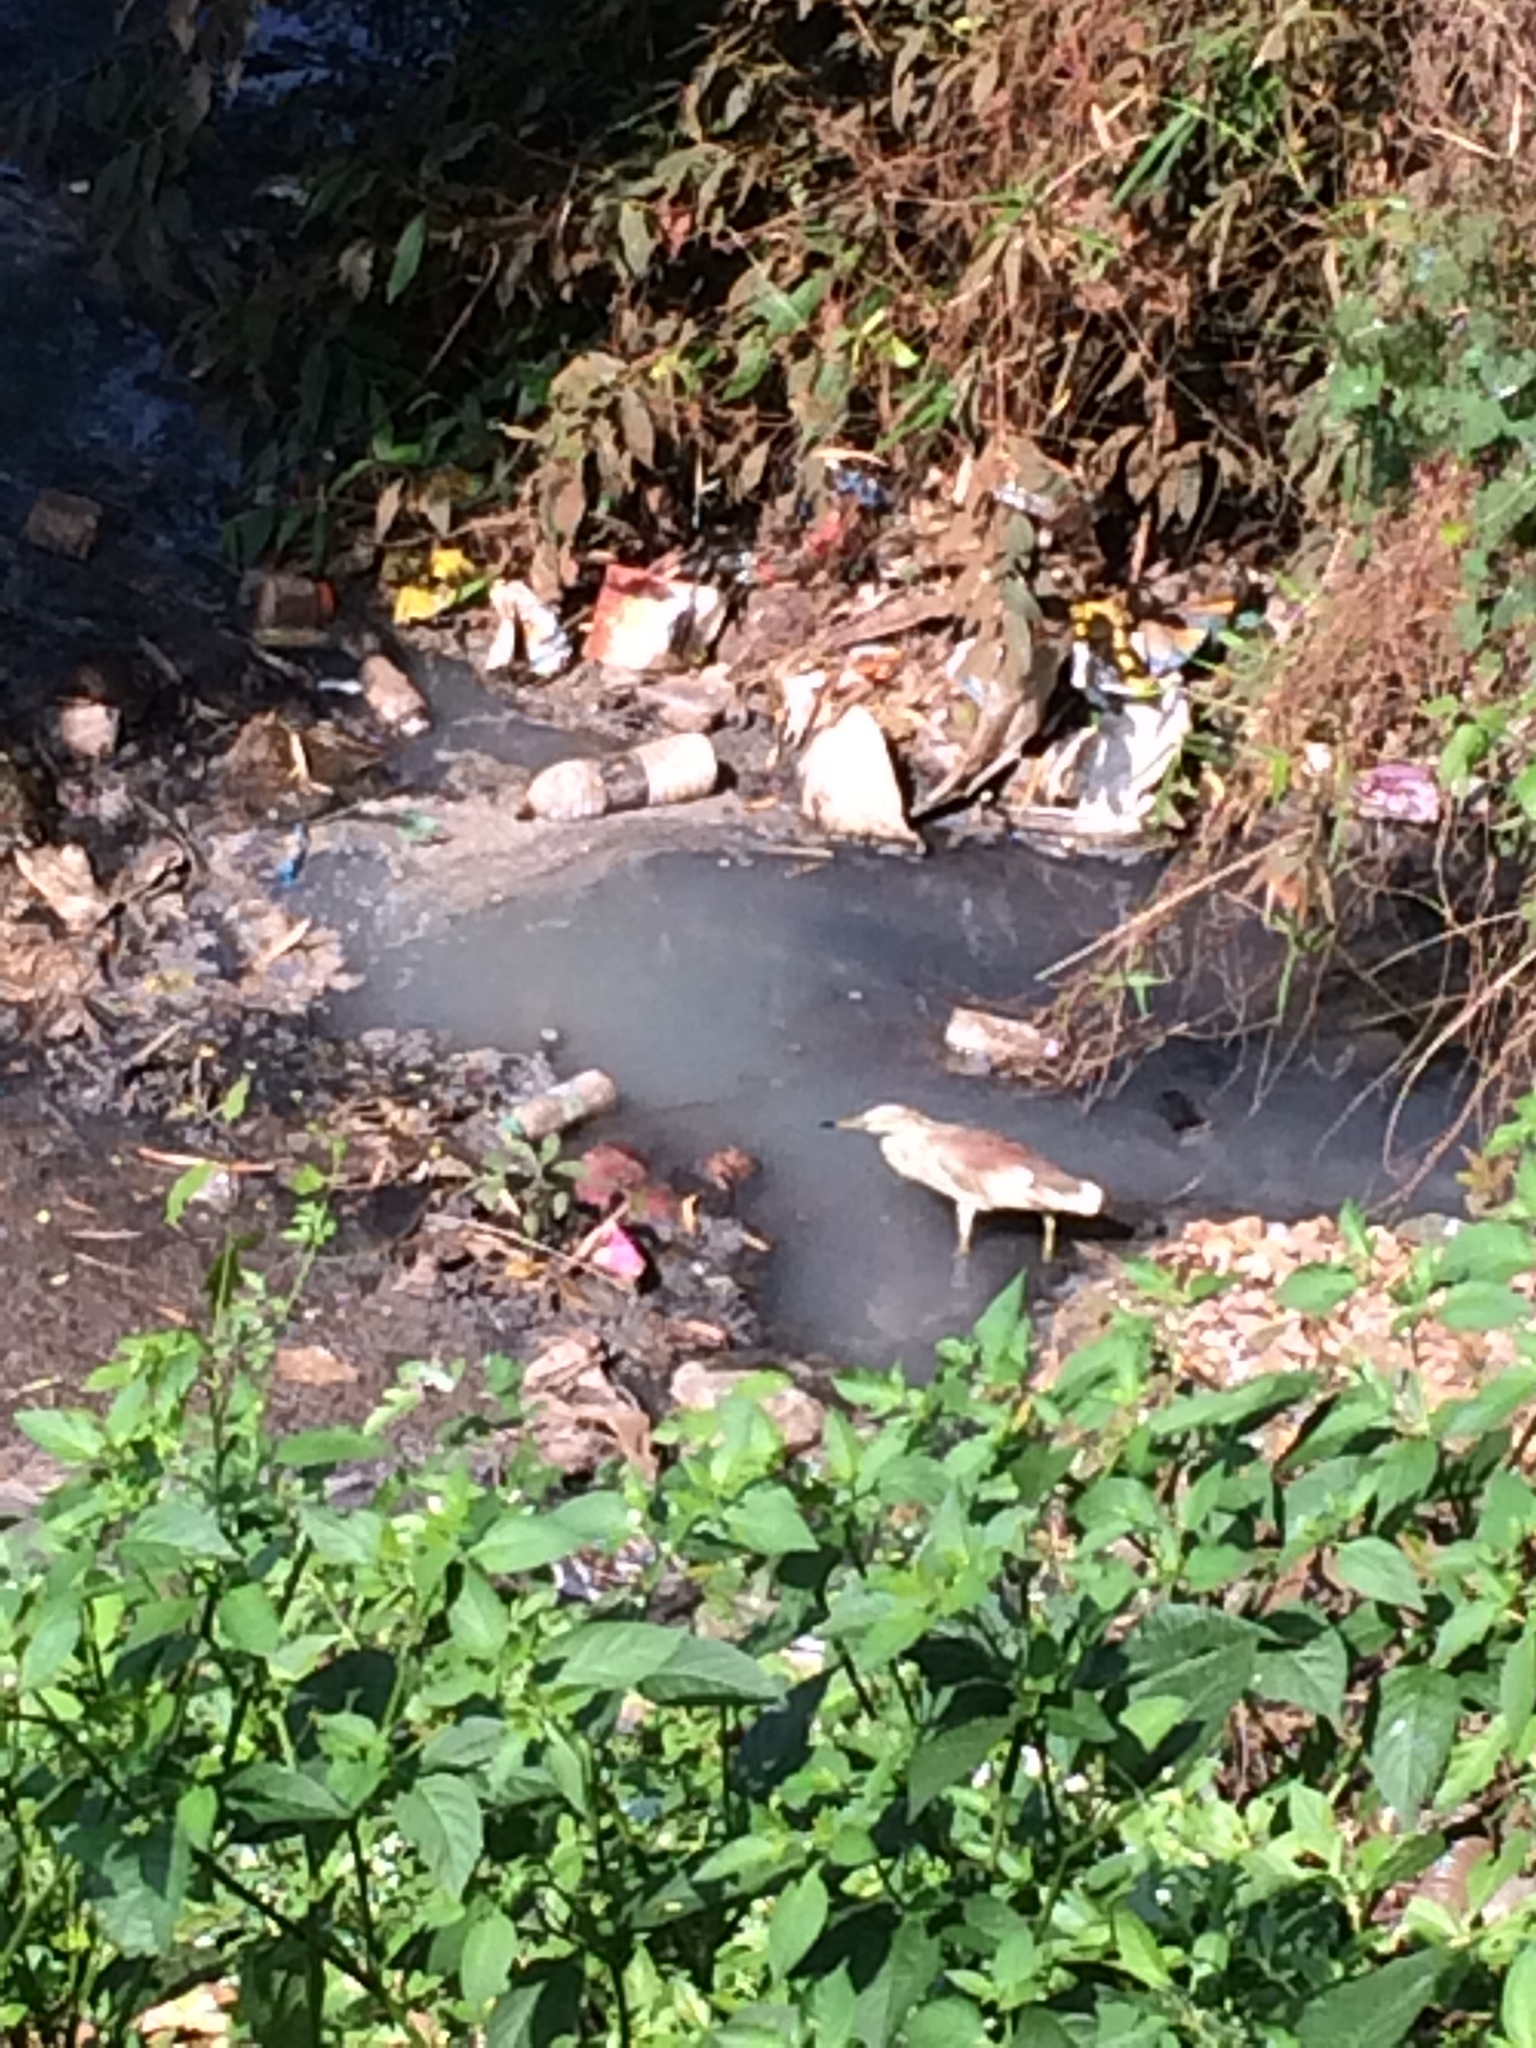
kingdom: Animalia
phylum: Chordata
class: Aves
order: Pelecaniformes
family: Ardeidae
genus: Ardeola
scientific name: Ardeola grayii
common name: Indian pond heron
